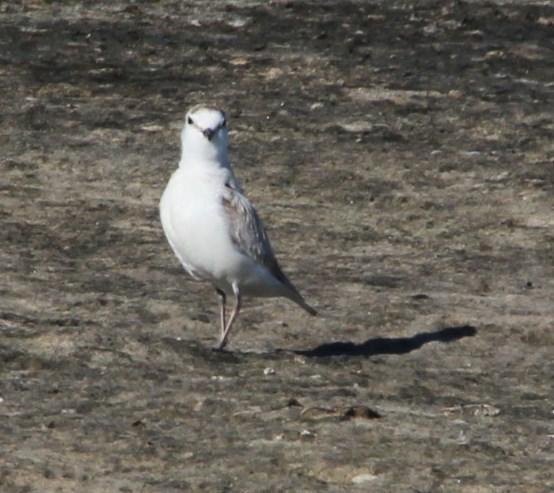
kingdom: Animalia
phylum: Chordata
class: Aves
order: Charadriiformes
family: Charadriidae
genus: Anarhynchus
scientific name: Anarhynchus
